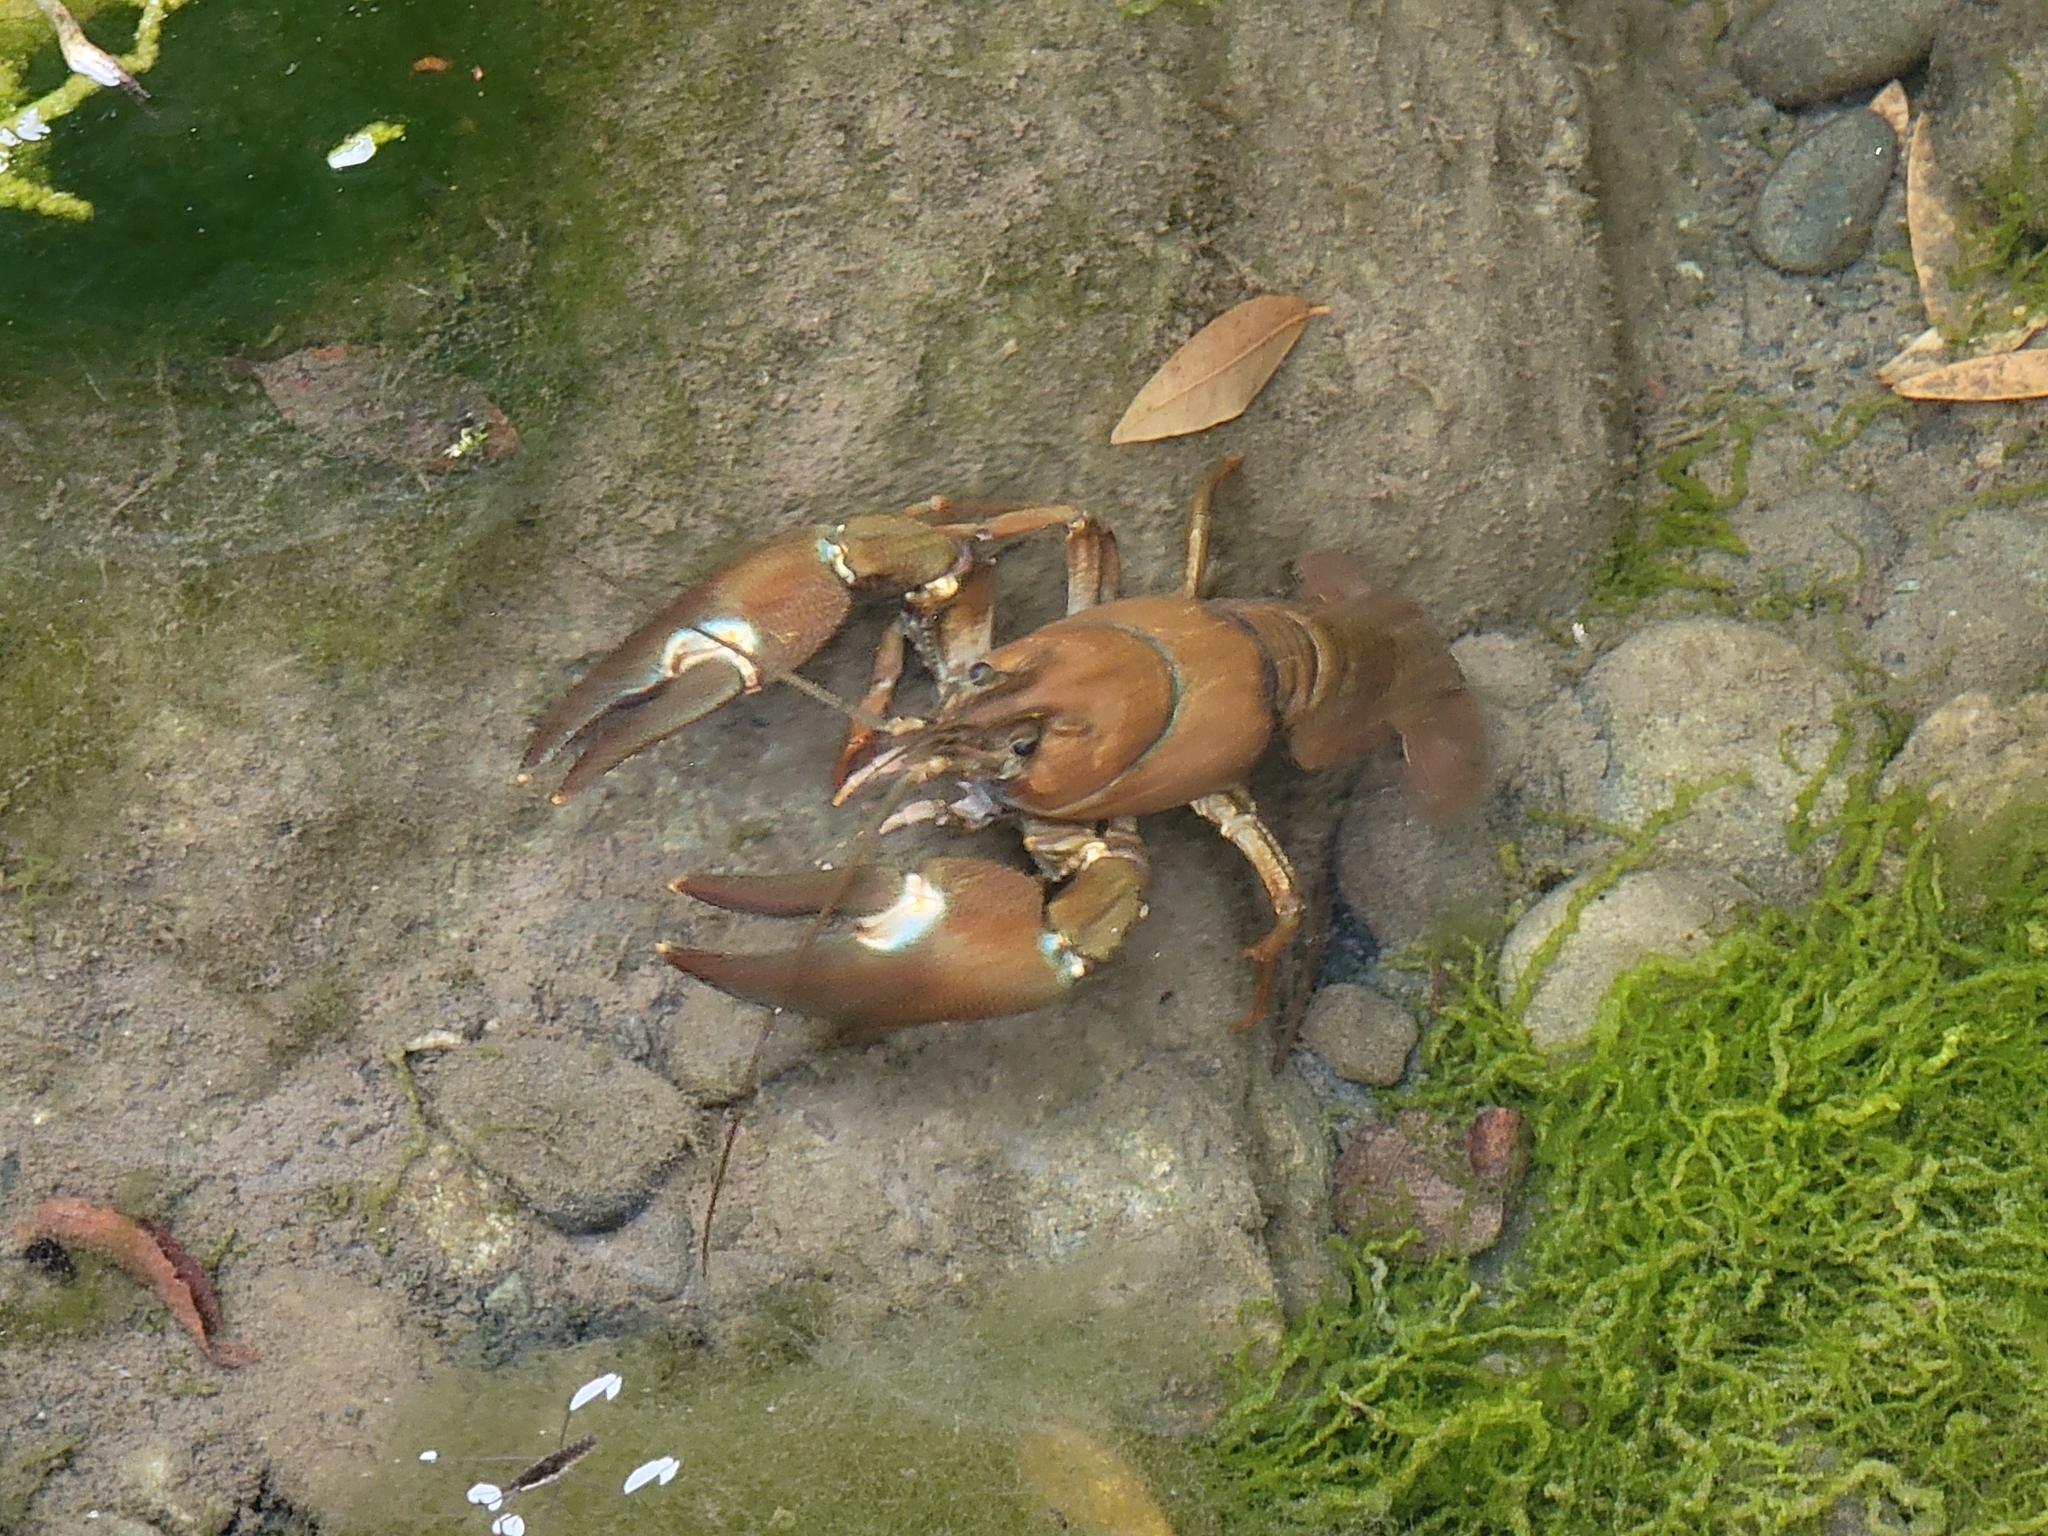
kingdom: Animalia
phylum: Arthropoda
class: Malacostraca
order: Decapoda
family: Astacidae
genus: Pacifastacus
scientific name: Pacifastacus leniusculus
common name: Signal crayfish
